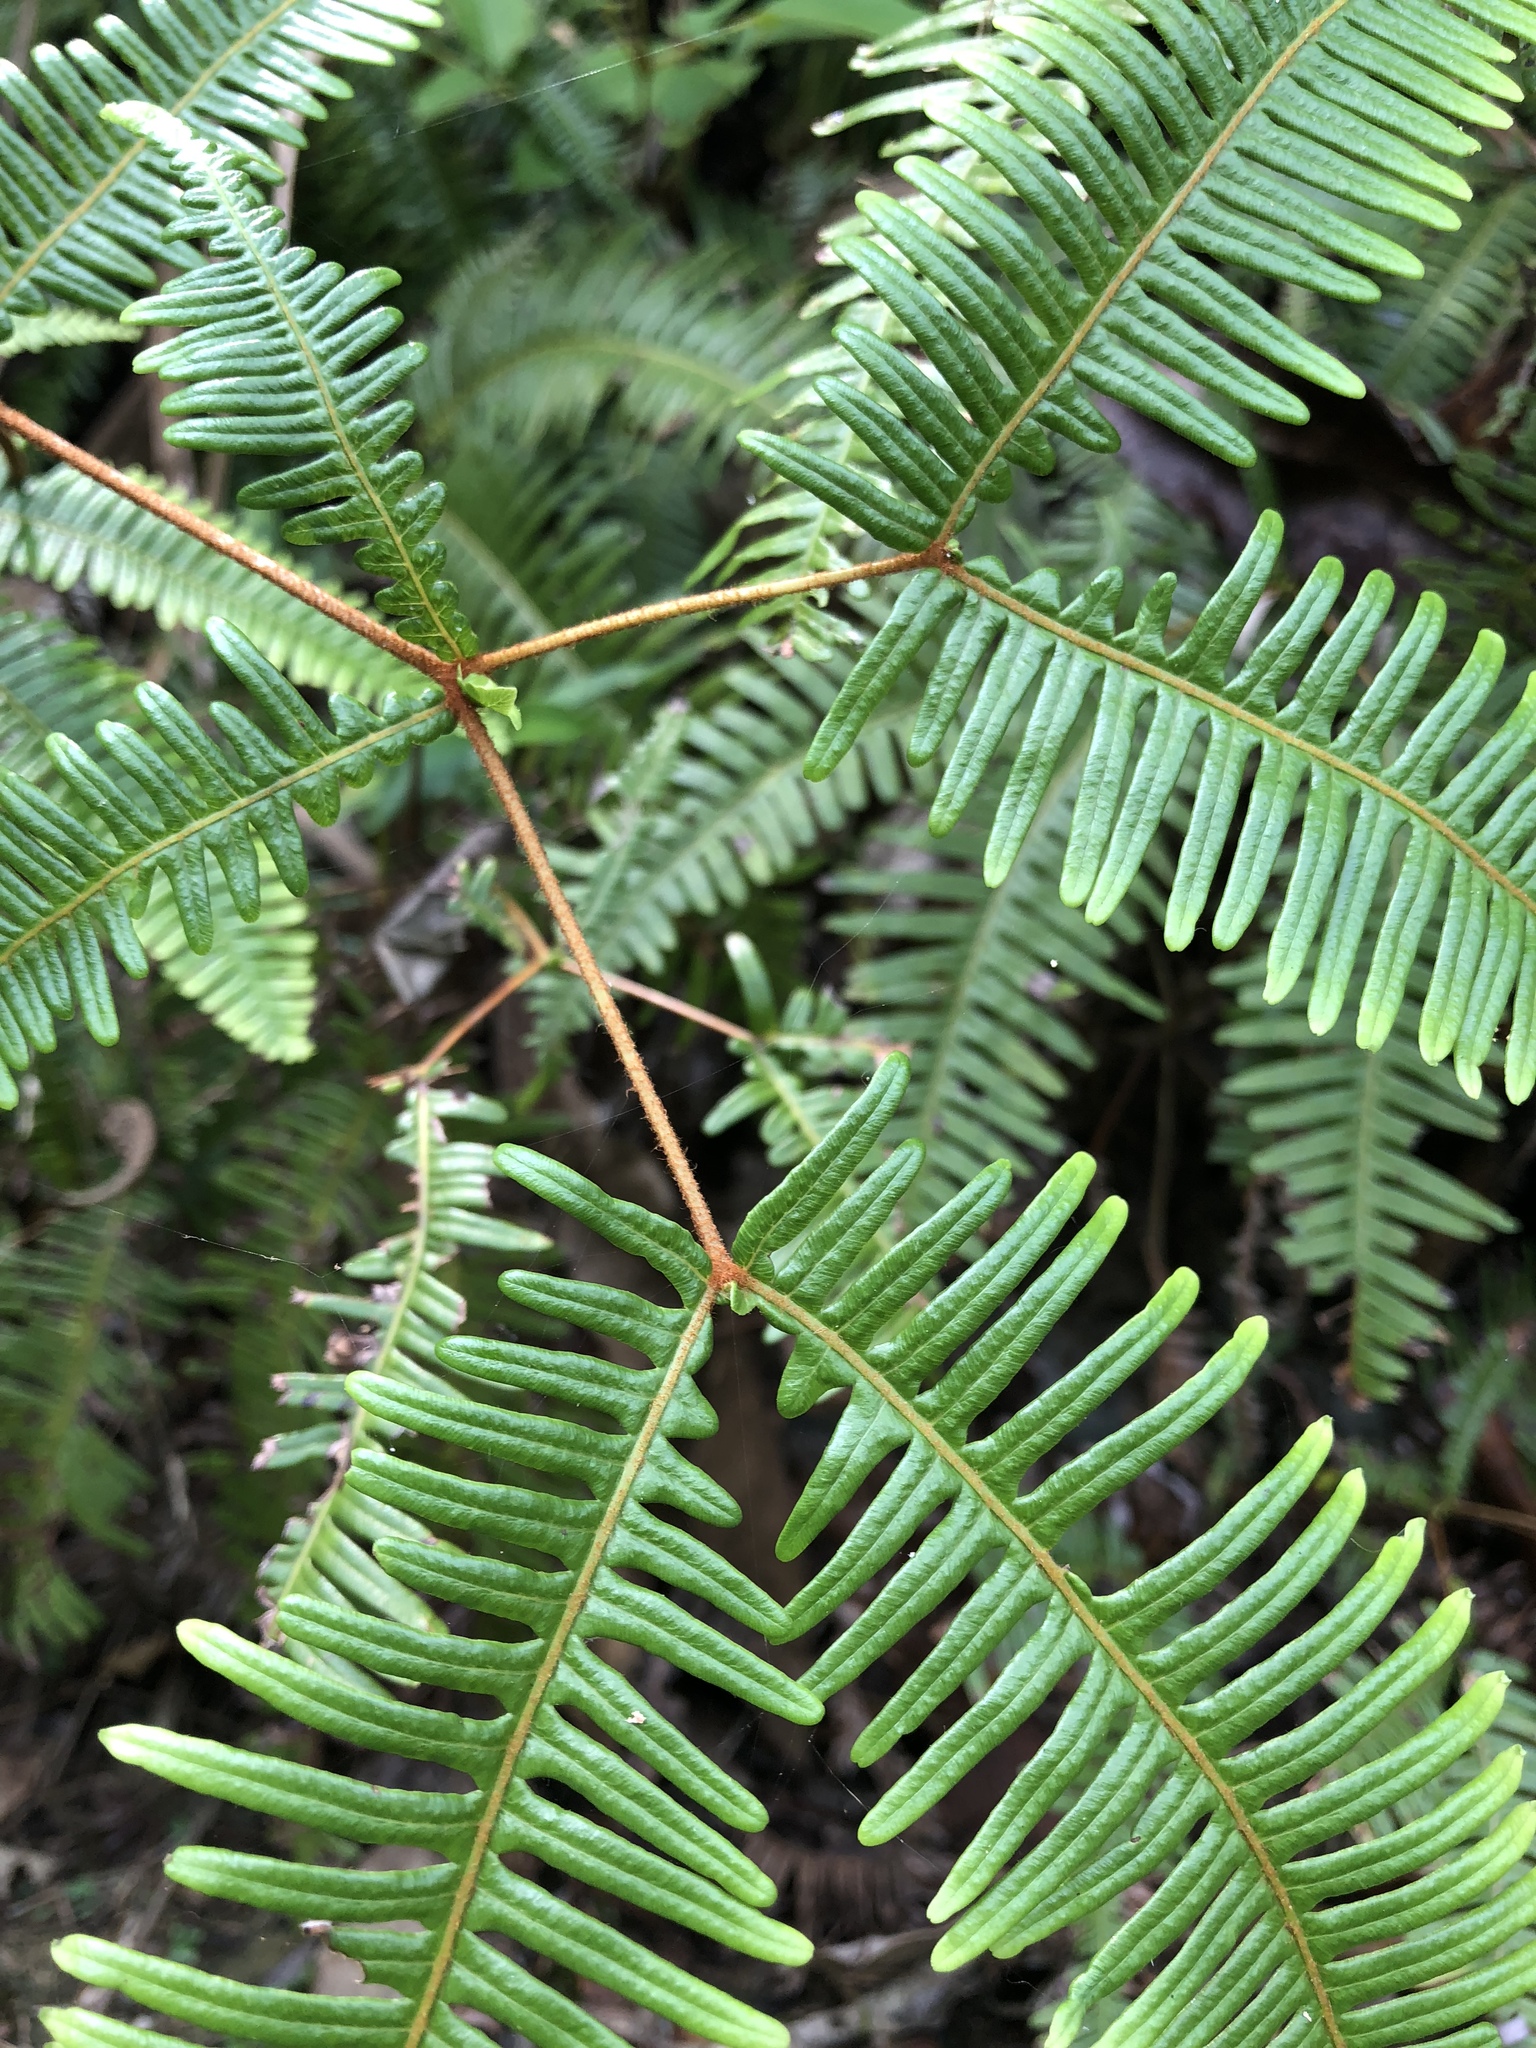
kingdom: Plantae
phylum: Tracheophyta
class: Polypodiopsida
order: Gleicheniales
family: Gleicheniaceae
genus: Dicranopteris
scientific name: Dicranopteris linearis
